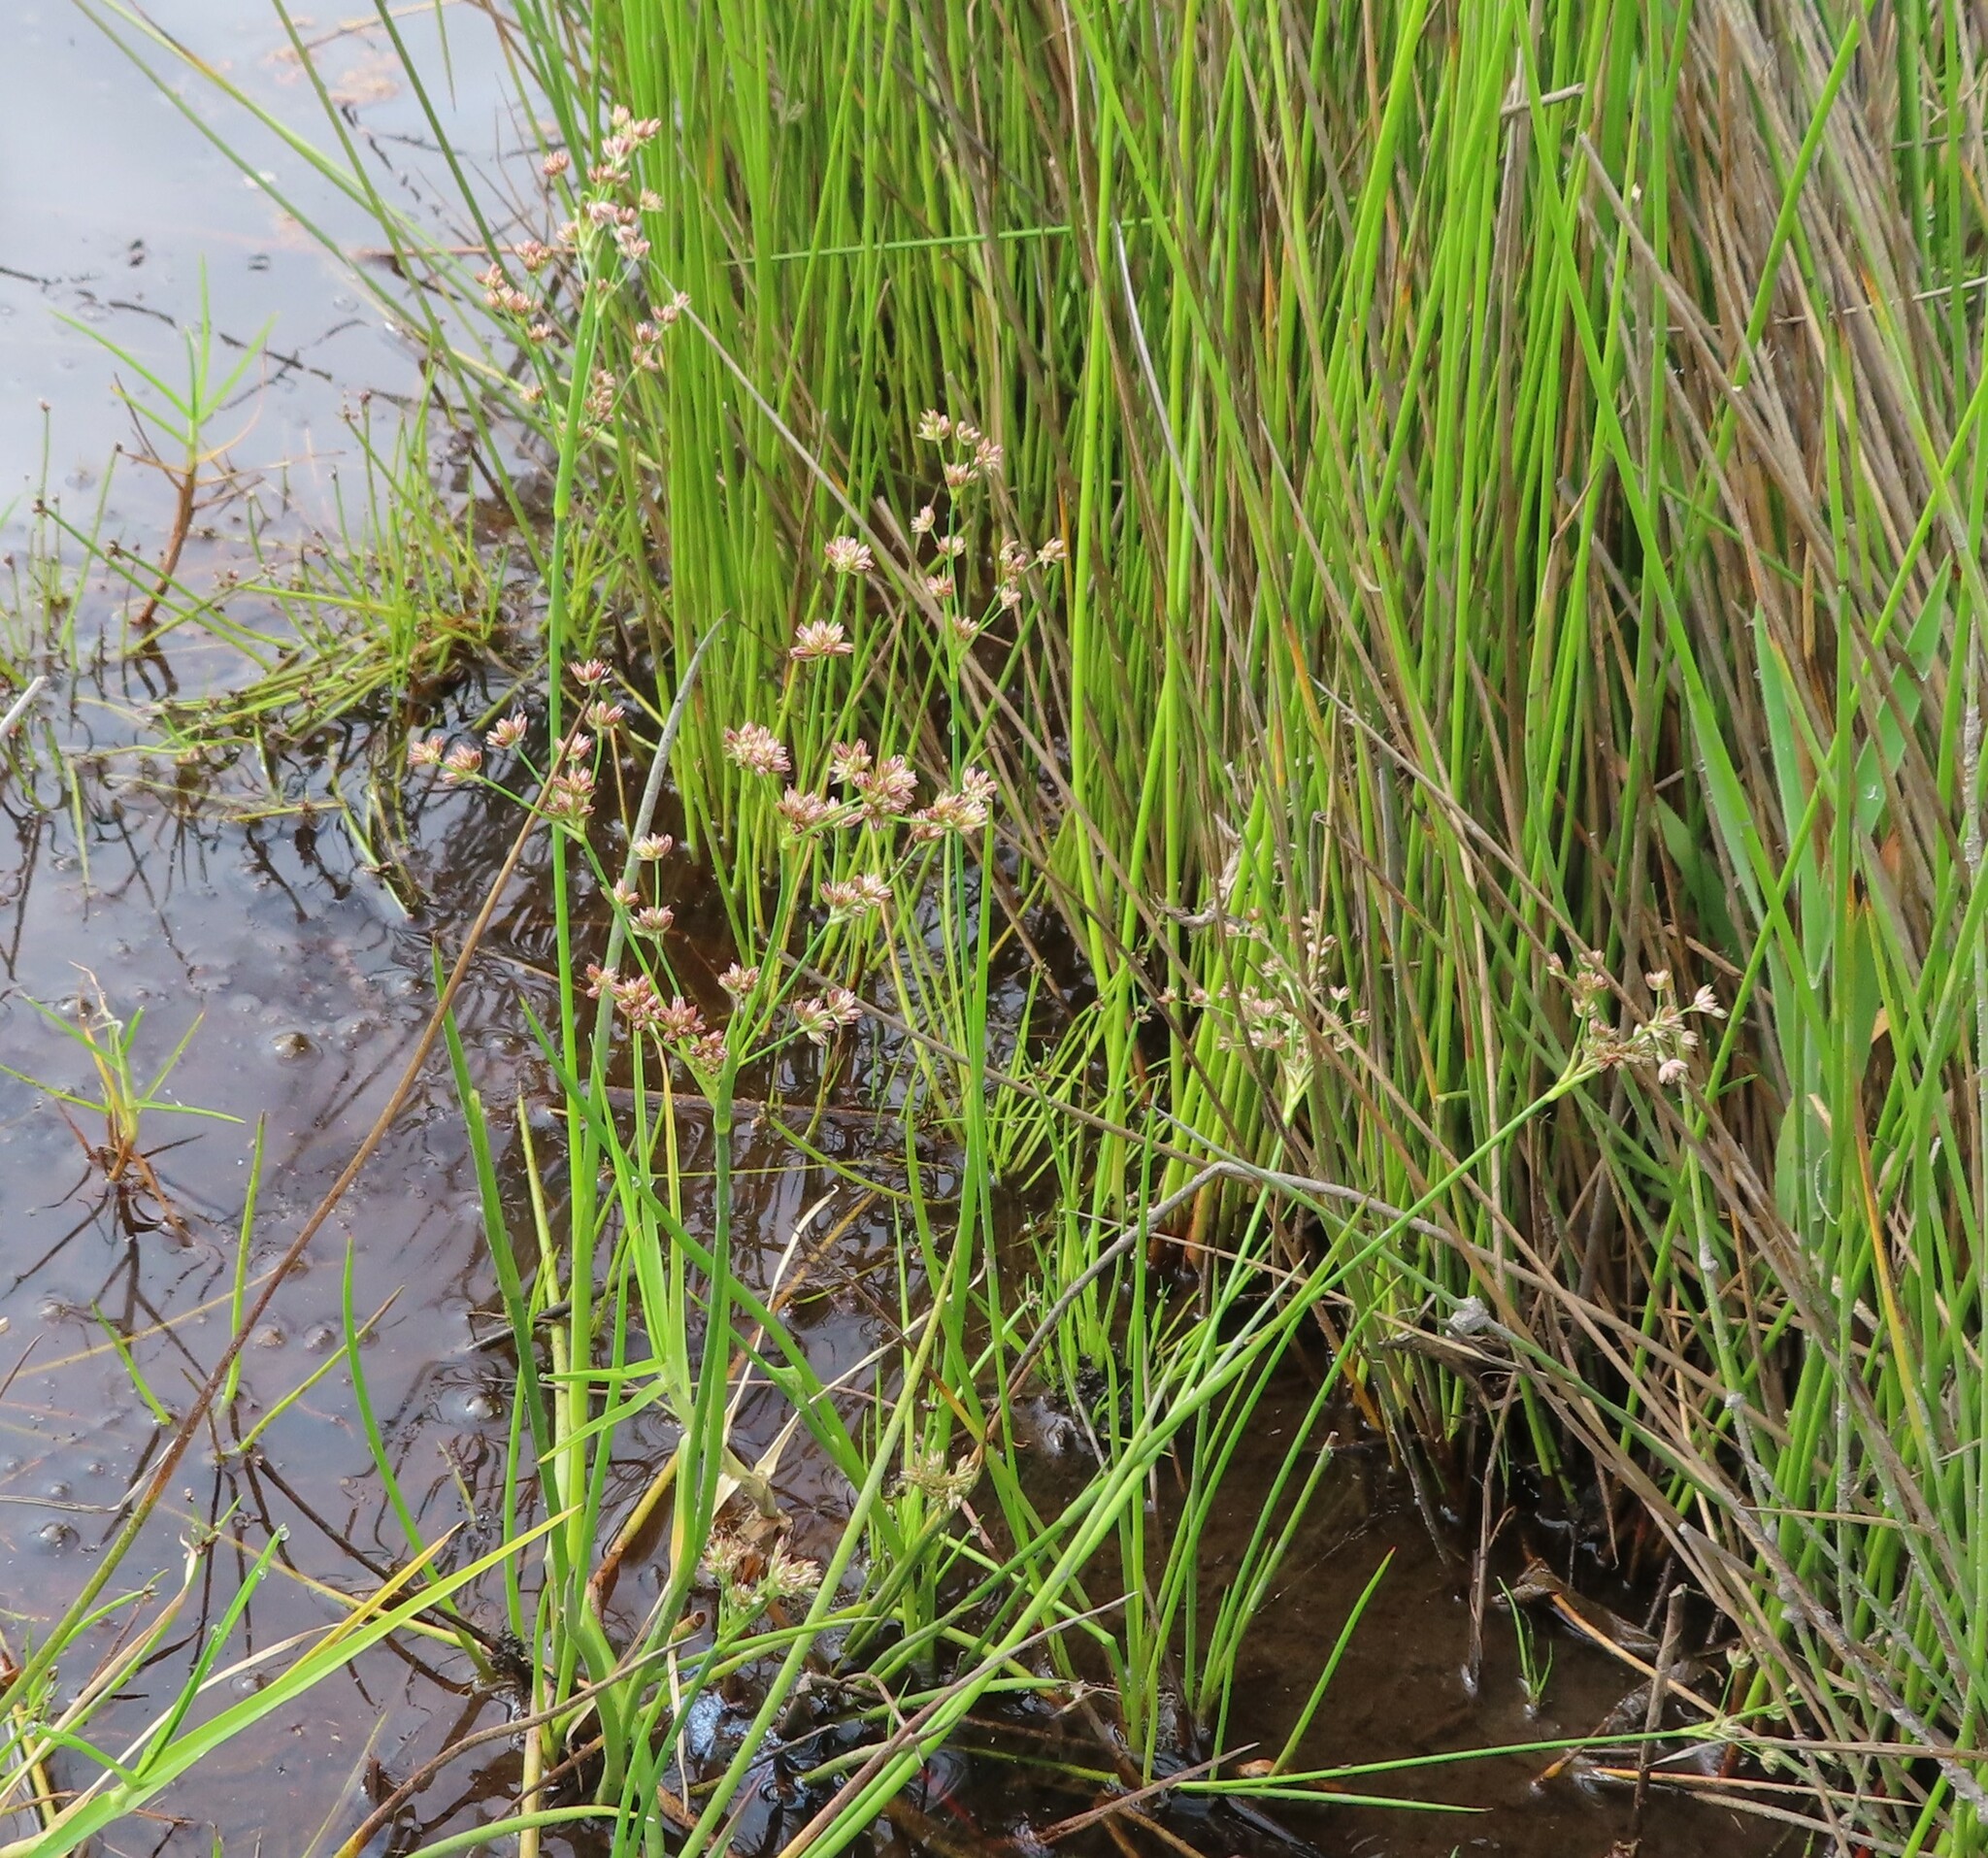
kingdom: Plantae
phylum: Tracheophyta
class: Liliopsida
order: Poales
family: Juncaceae
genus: Juncus
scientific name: Juncus lomatophyllus
